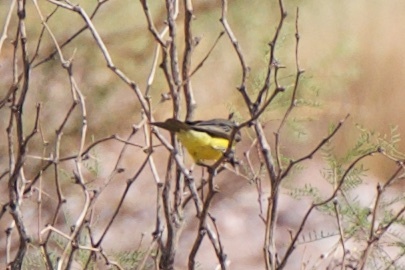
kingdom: Animalia
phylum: Chordata
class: Aves
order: Passeriformes
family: Tyrannidae
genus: Tyrannus
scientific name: Tyrannus melancholicus
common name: Tropical kingbird
